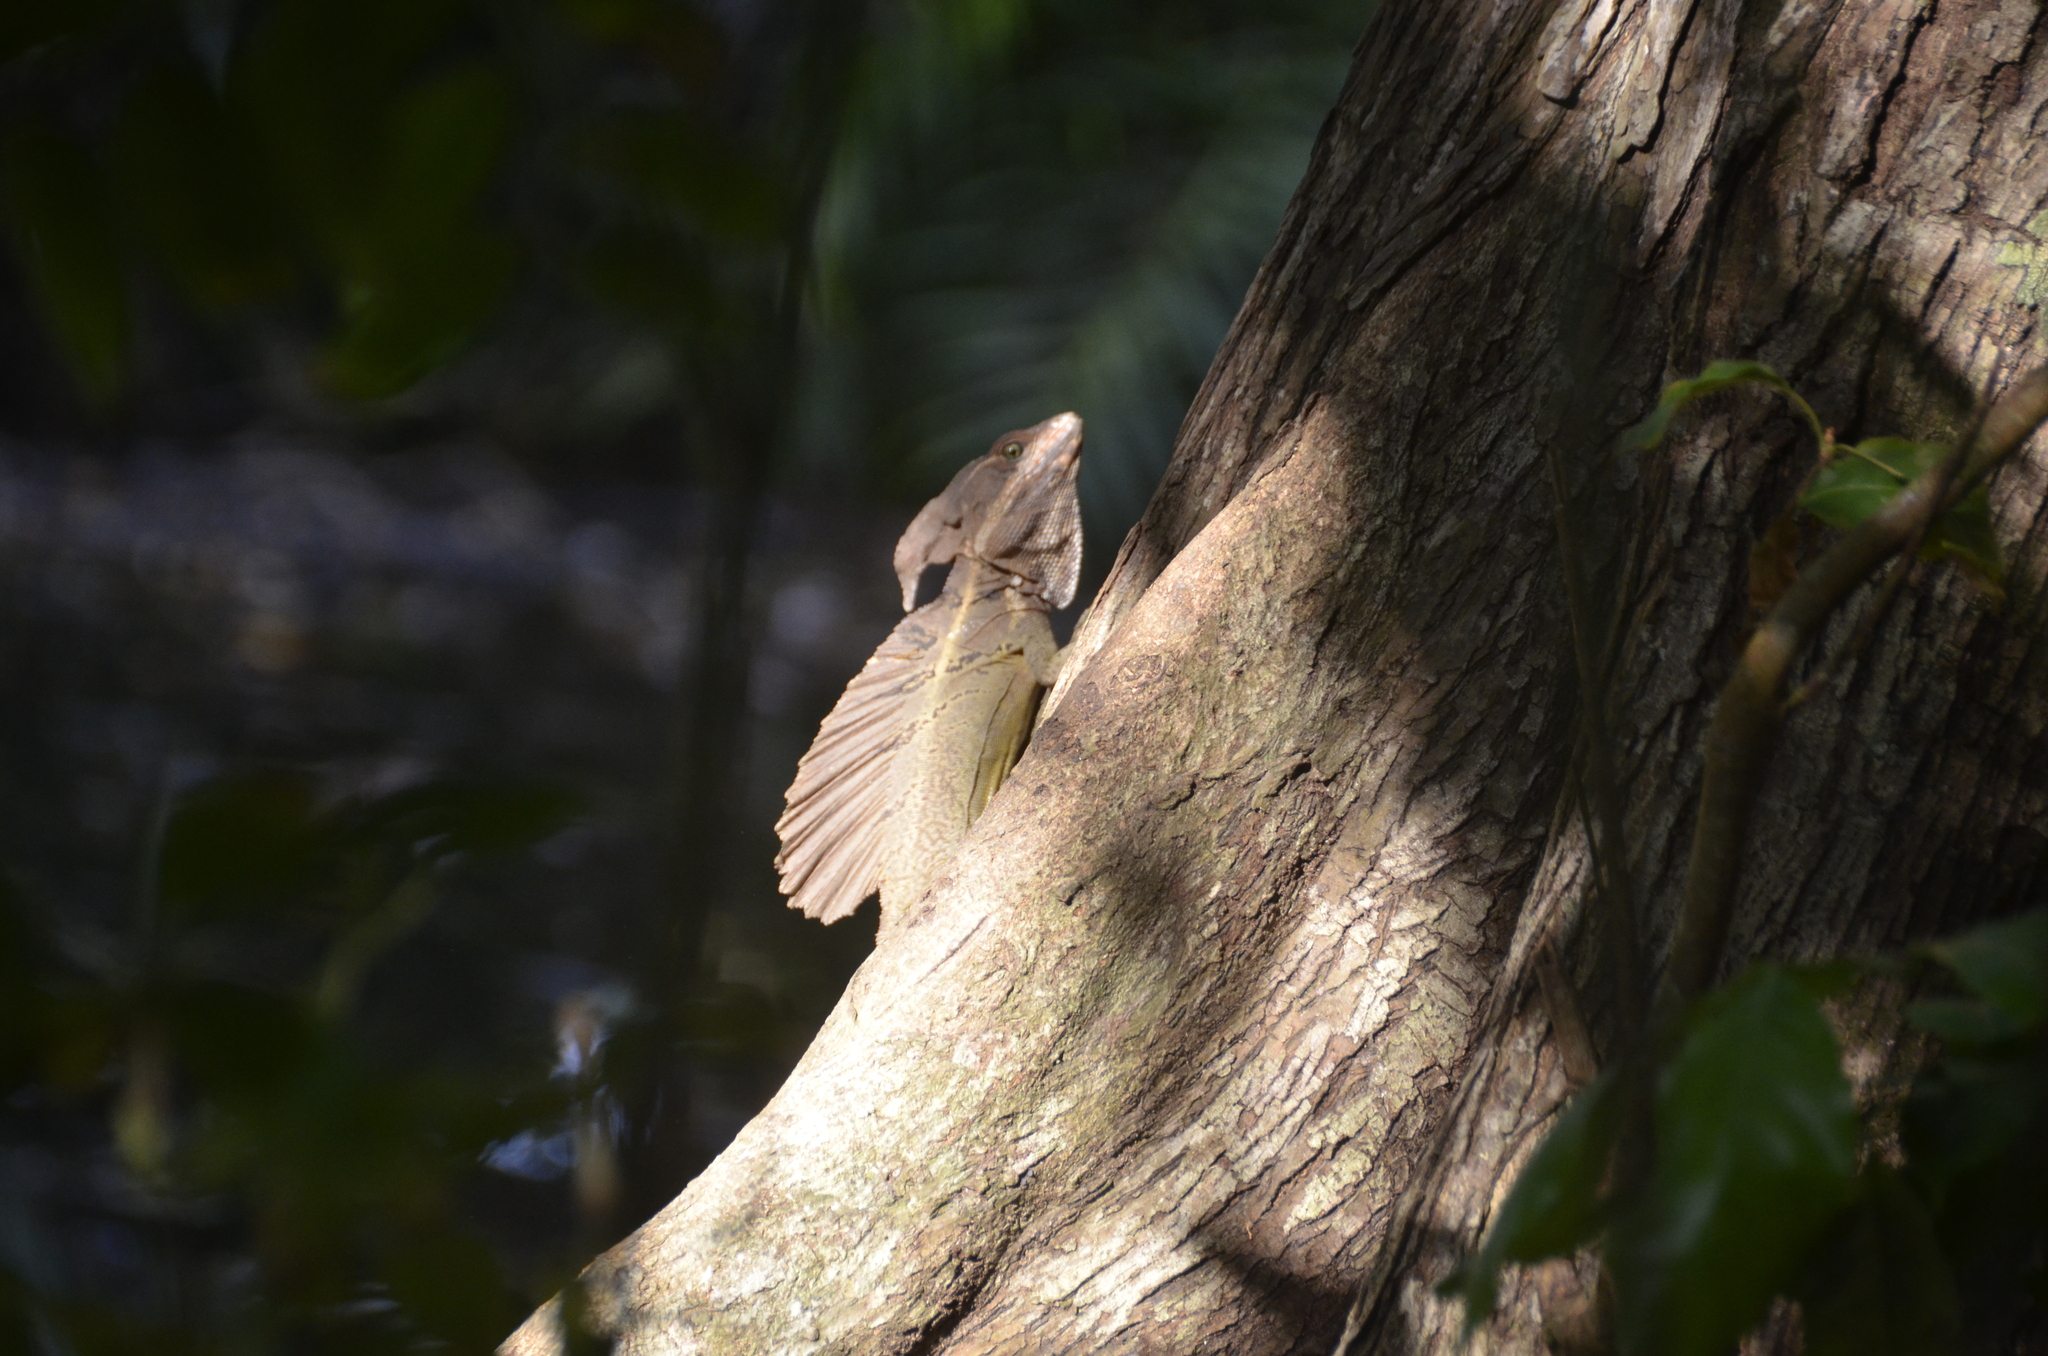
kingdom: Animalia
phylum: Chordata
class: Squamata
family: Corytophanidae
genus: Basiliscus
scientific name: Basiliscus basiliscus
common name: Common basilisk
